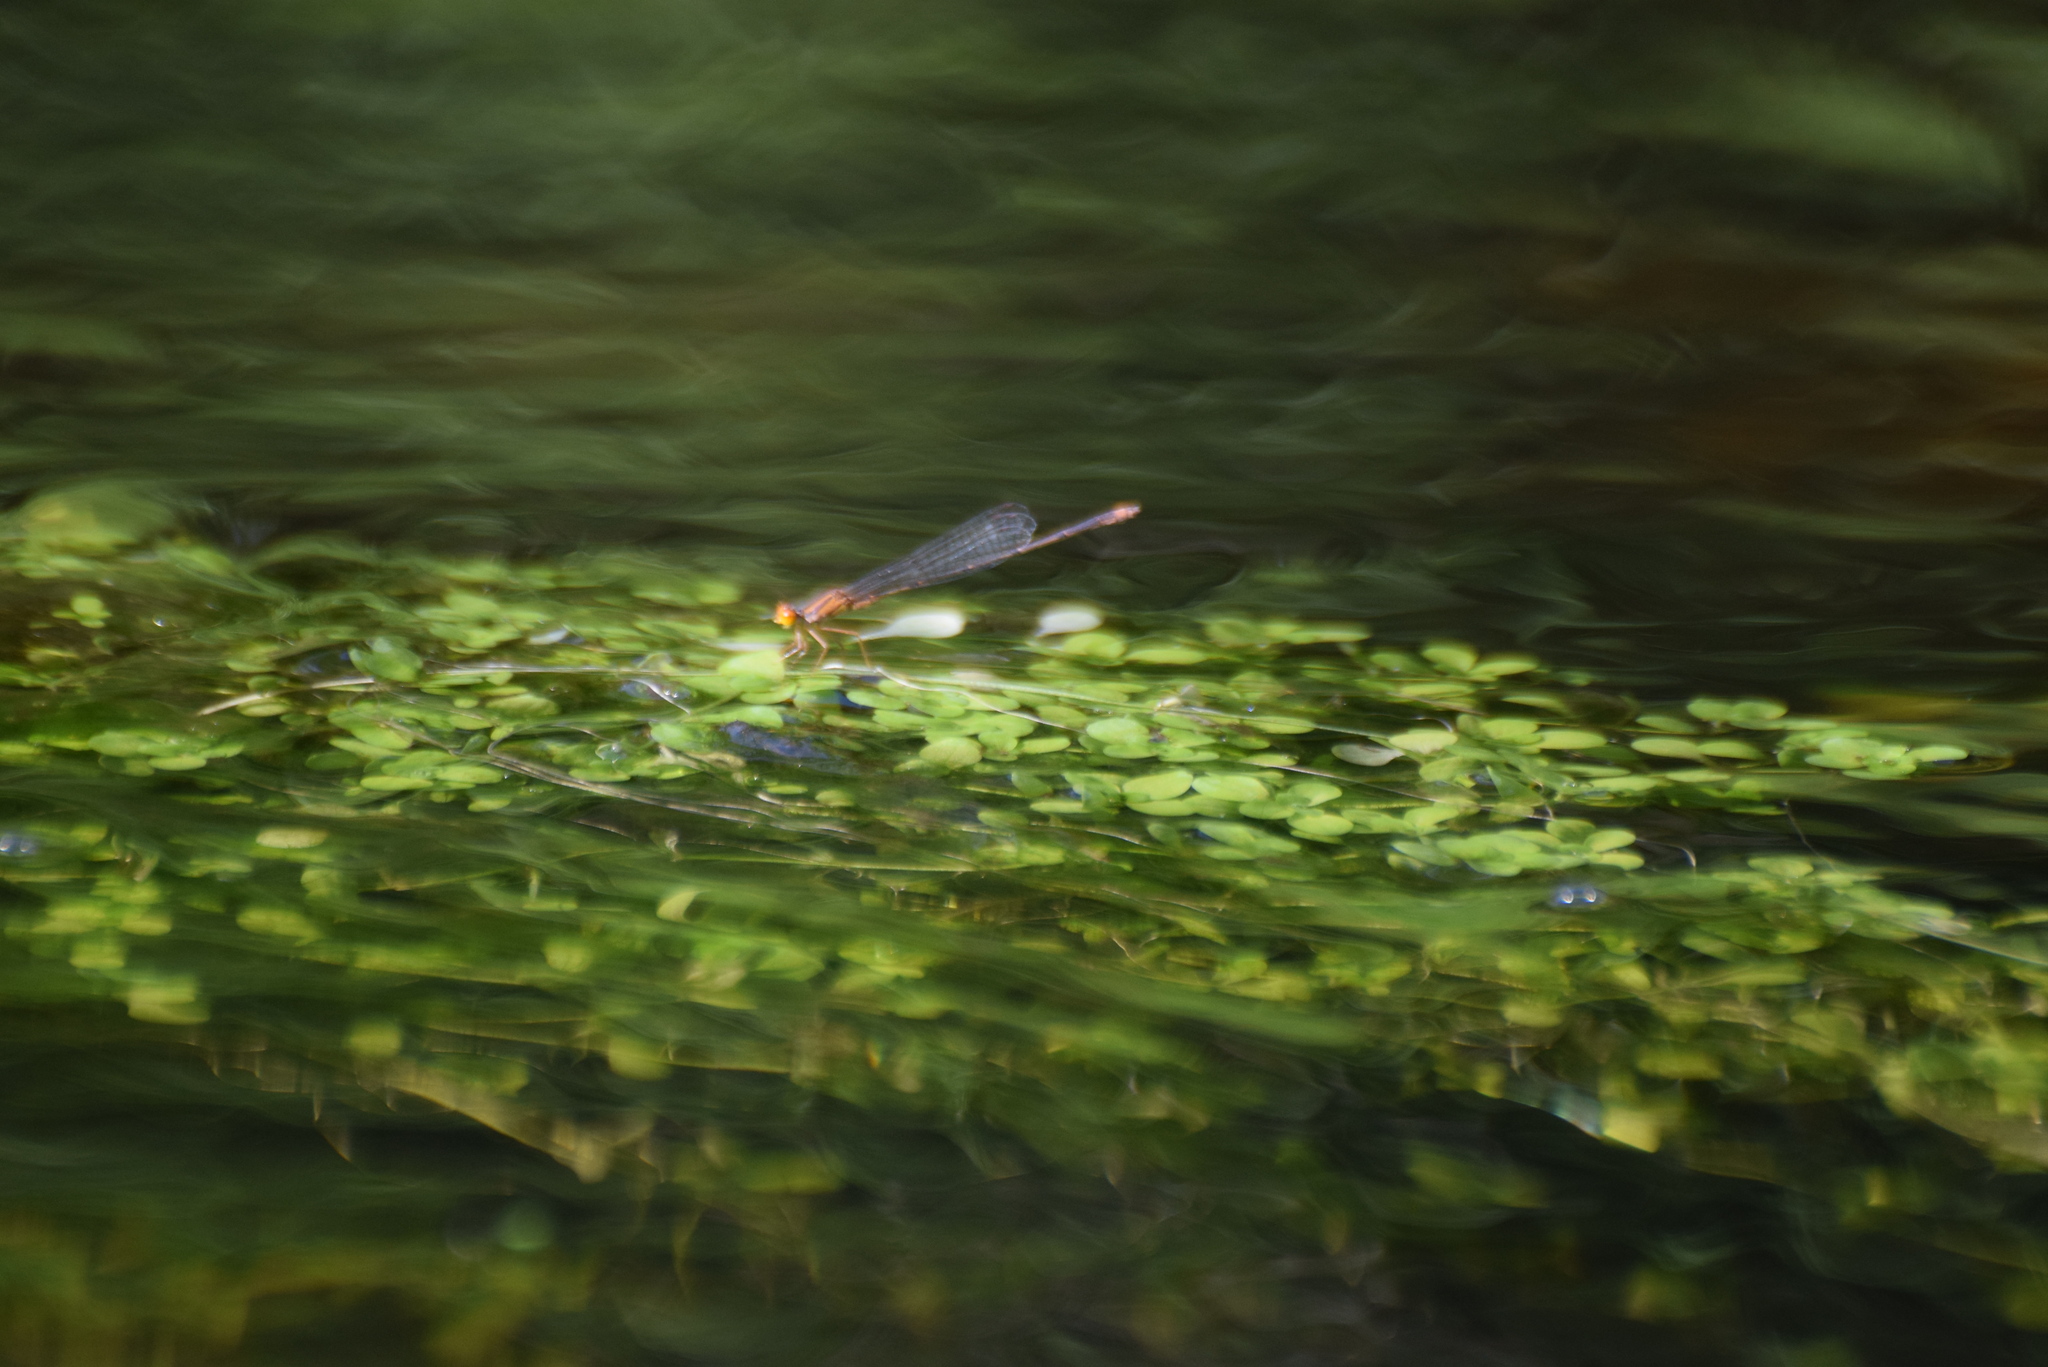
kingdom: Animalia
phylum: Arthropoda
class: Insecta
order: Odonata
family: Coenagrionidae
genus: Enallagma
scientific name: Enallagma signatum
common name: Orange bluet
